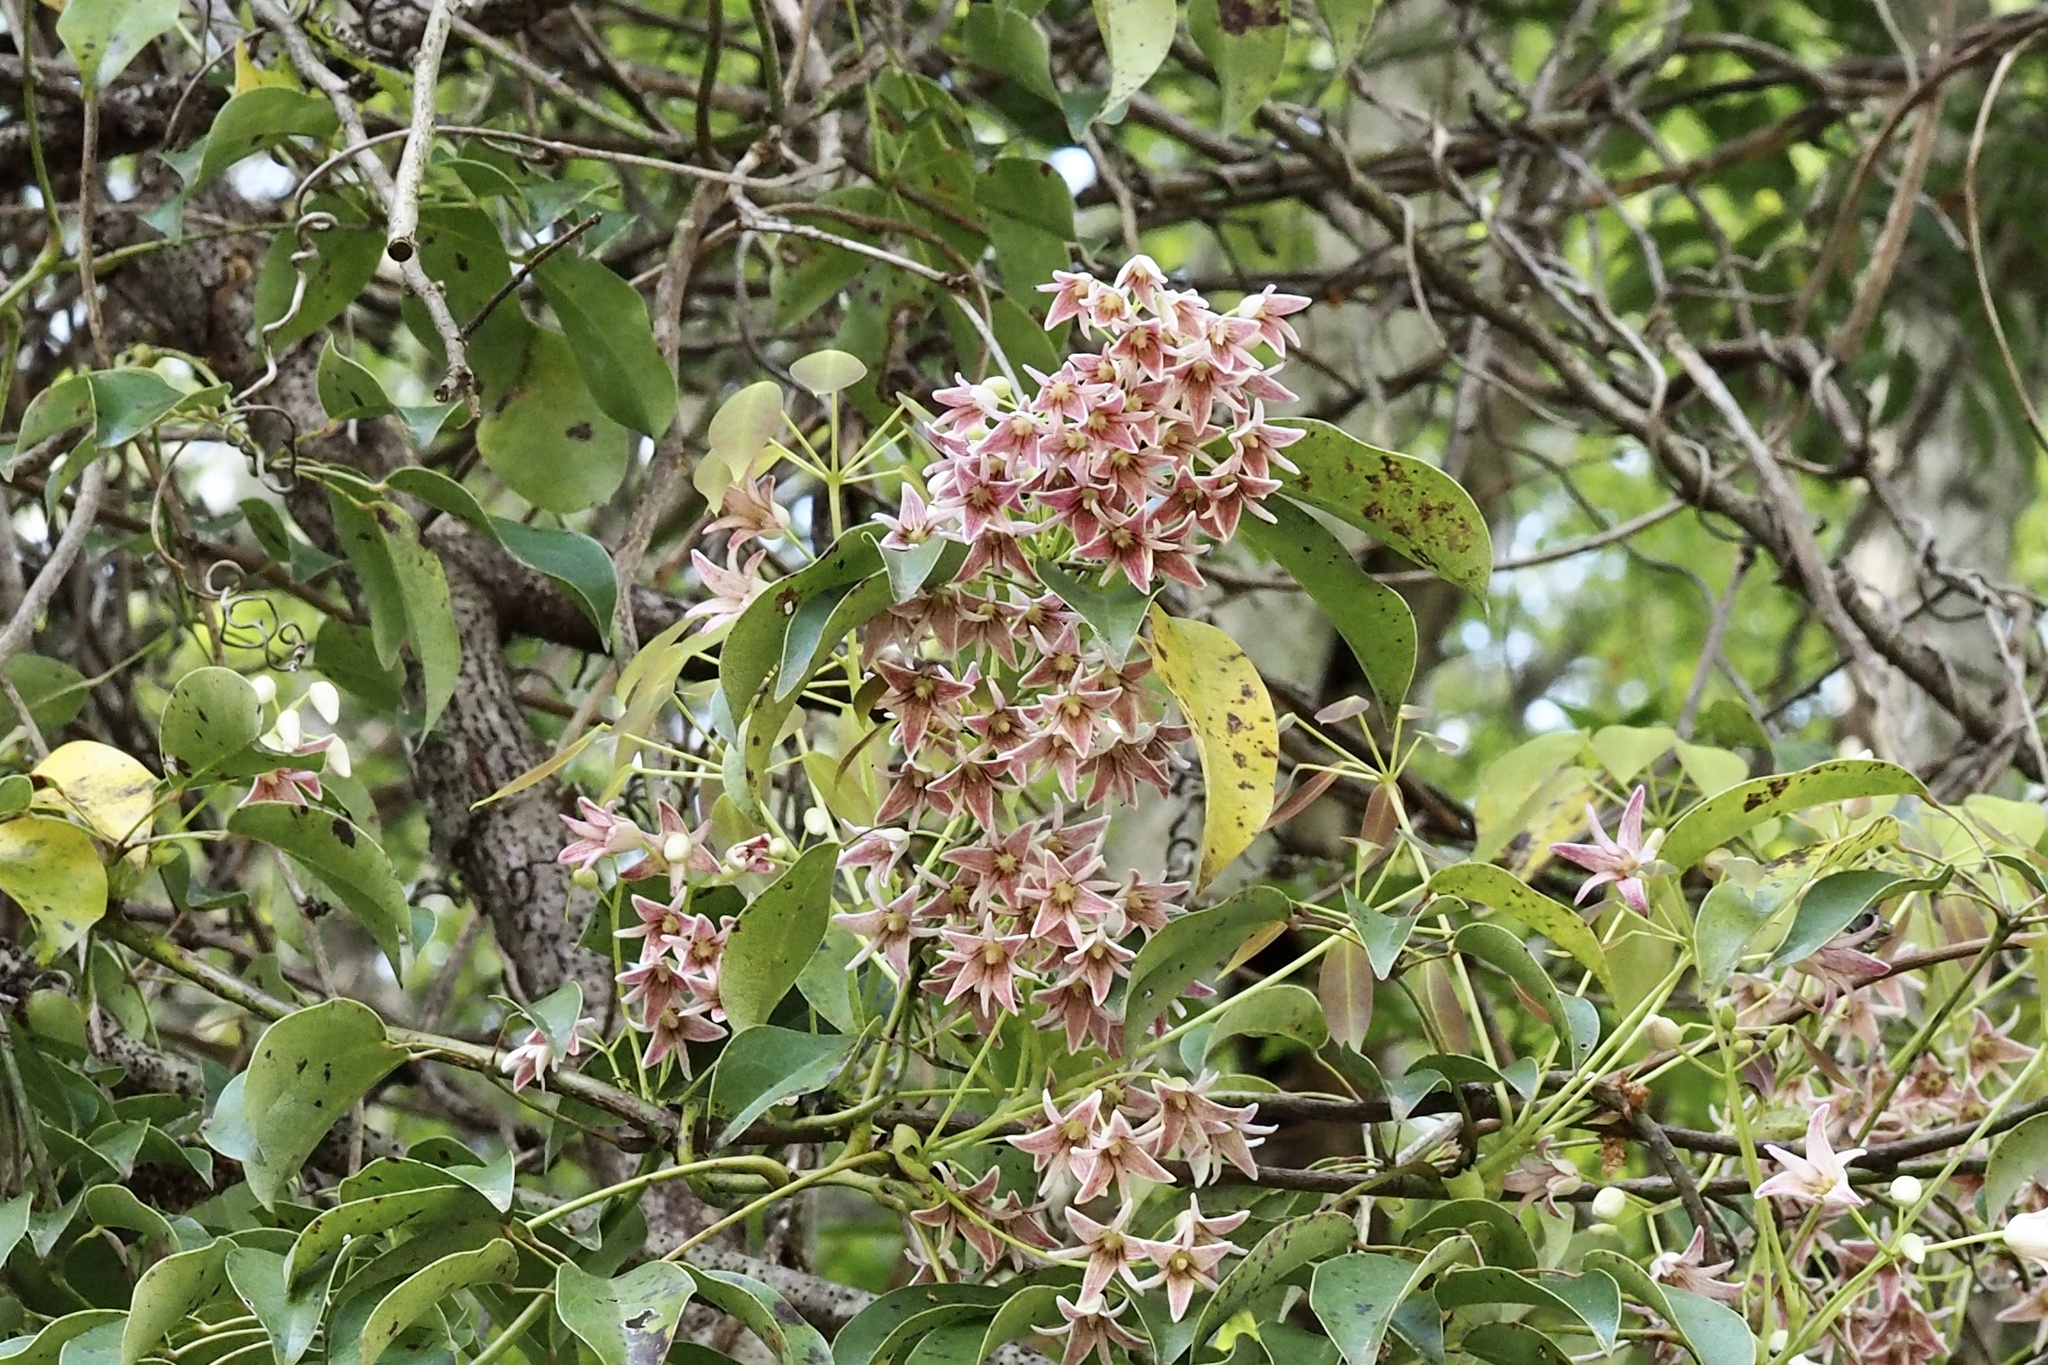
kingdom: Plantae
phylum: Tracheophyta
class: Magnoliopsida
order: Ranunculales
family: Lardizabalaceae
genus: Stauntonia
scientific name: Stauntonia hexaphylla
